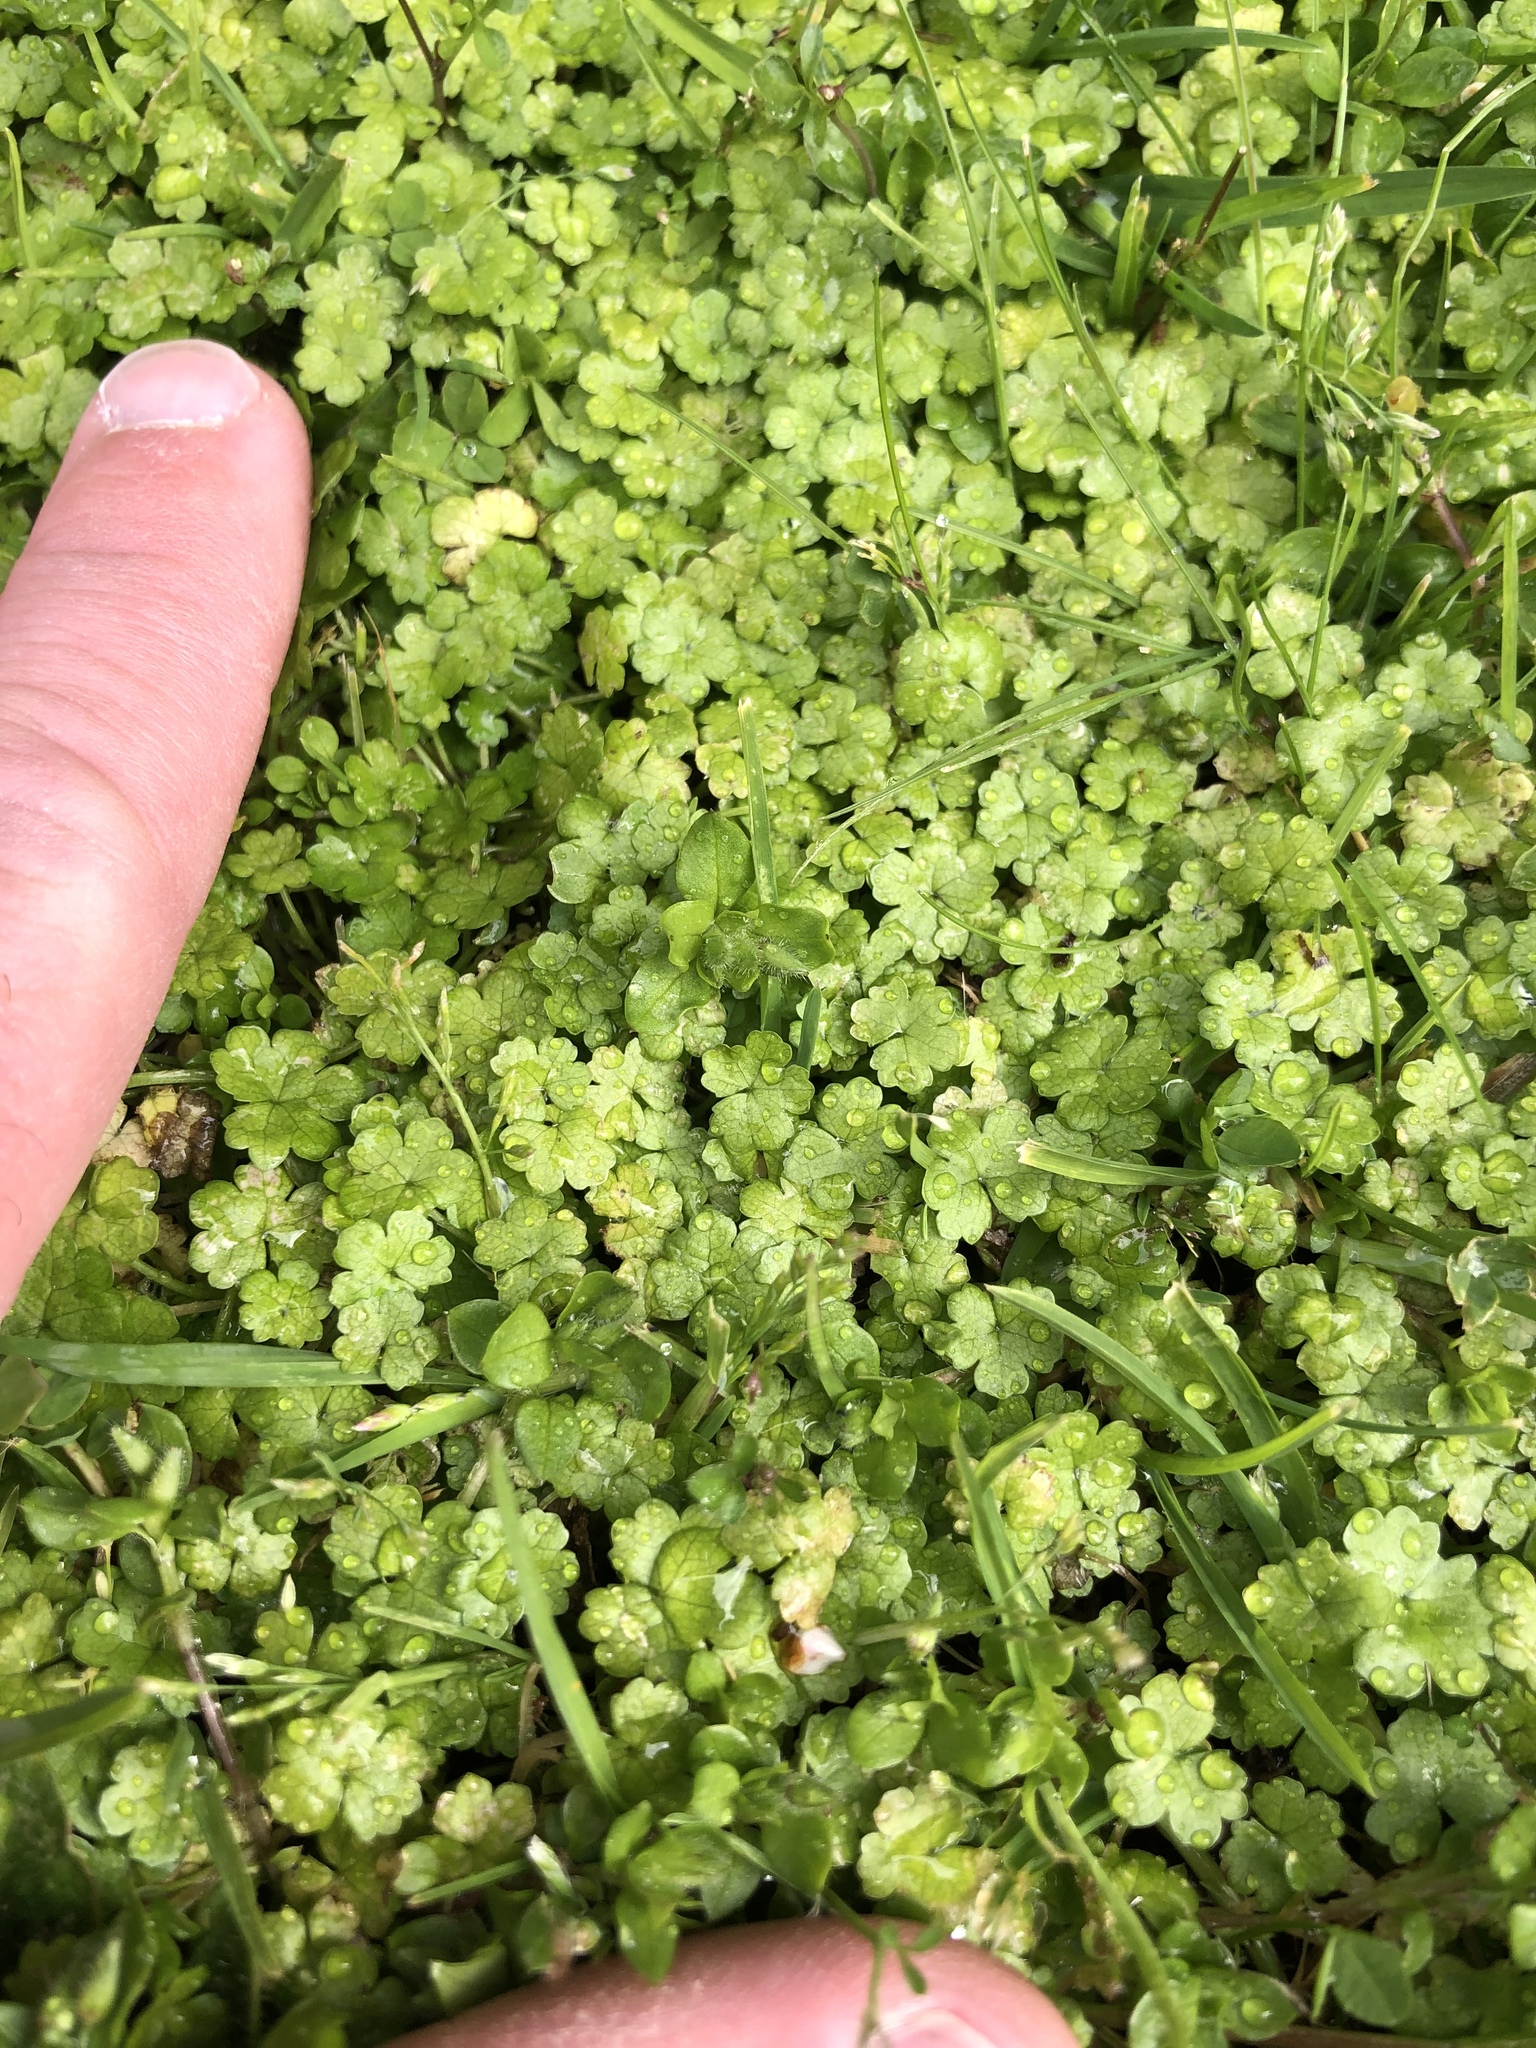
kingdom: Plantae
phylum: Tracheophyta
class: Magnoliopsida
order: Apiales
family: Araliaceae
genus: Hydrocotyle
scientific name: Hydrocotyle heteromeria
